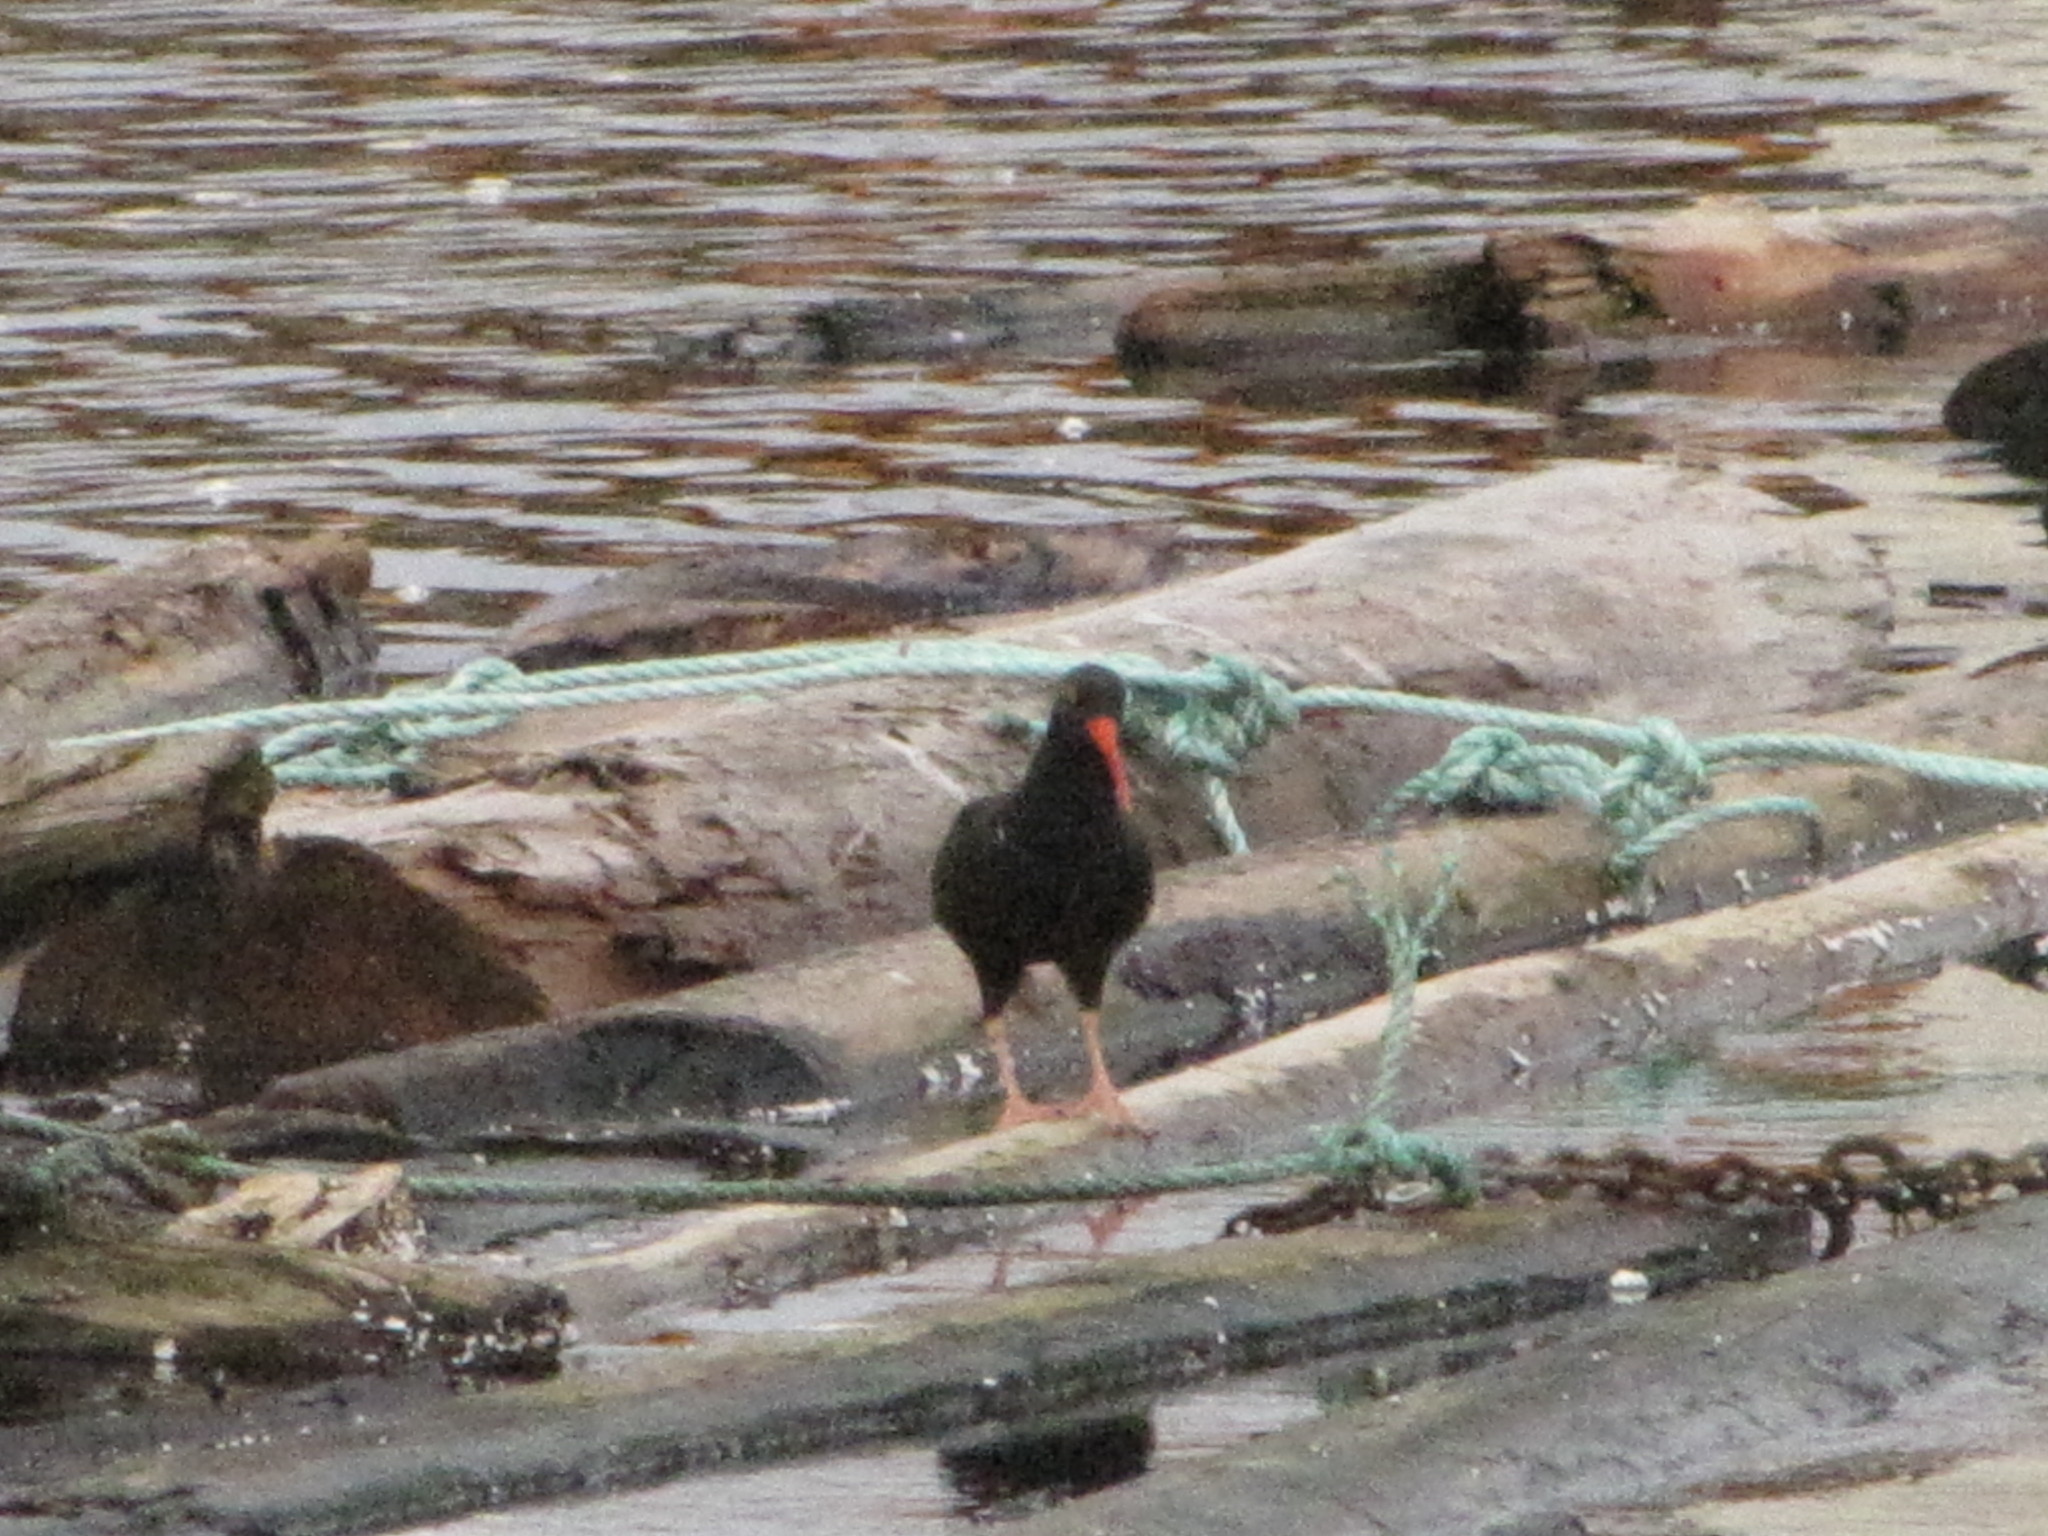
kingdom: Animalia
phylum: Chordata
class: Aves
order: Charadriiformes
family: Haematopodidae
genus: Haematopus
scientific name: Haematopus bachmani
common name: Black oystercatcher
